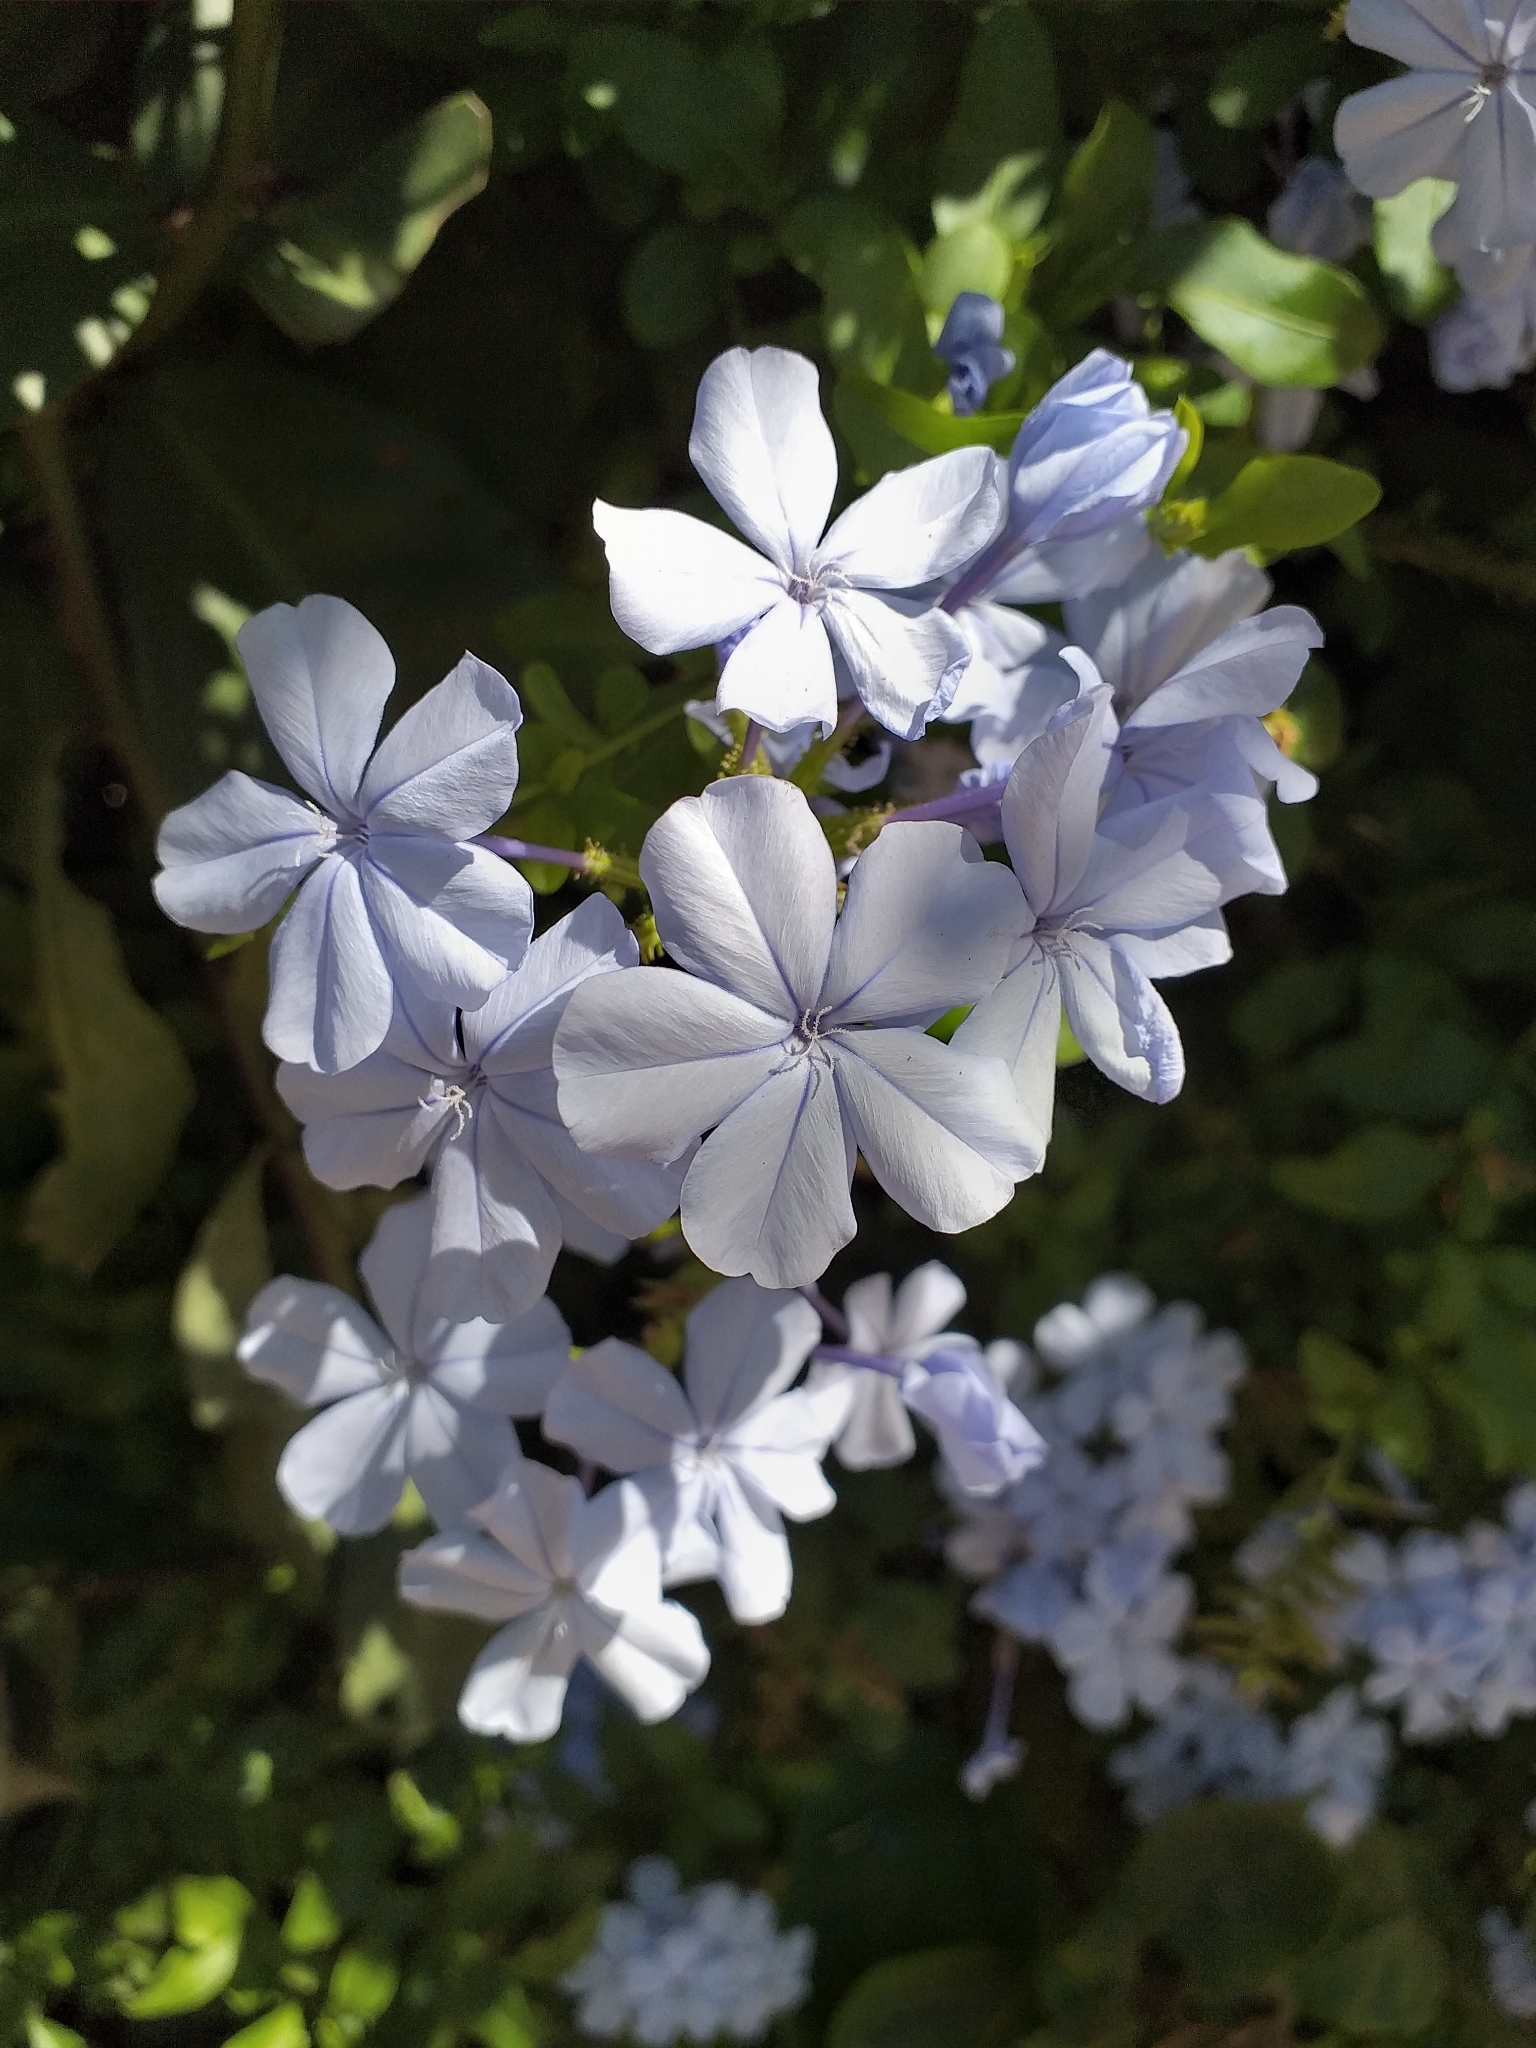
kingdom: Plantae
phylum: Tracheophyta
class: Magnoliopsida
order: Caryophyllales
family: Plumbaginaceae
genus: Plumbago
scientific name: Plumbago auriculata
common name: Cape leadwort
